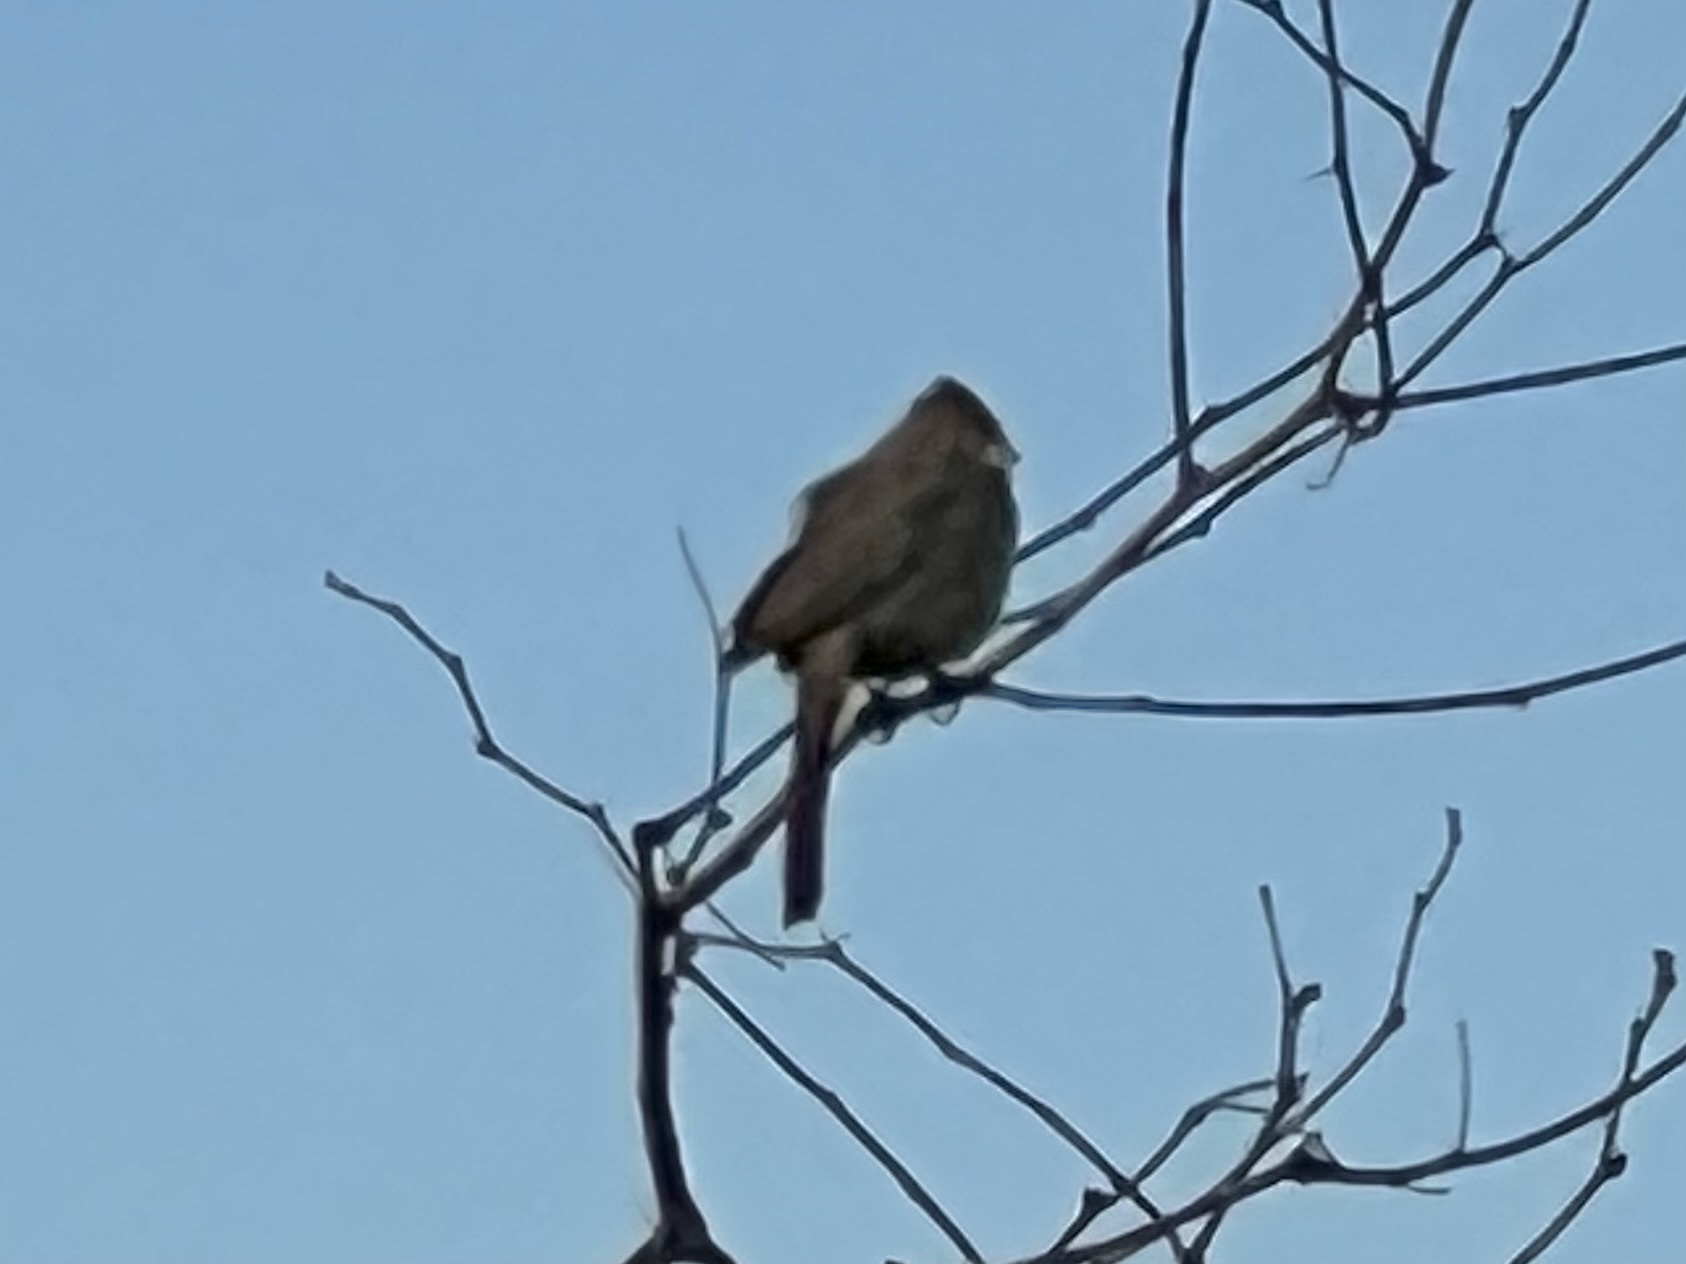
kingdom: Animalia
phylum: Chordata
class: Aves
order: Passeriformes
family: Passerellidae
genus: Melozone
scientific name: Melozone fusca
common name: Canyon towhee
